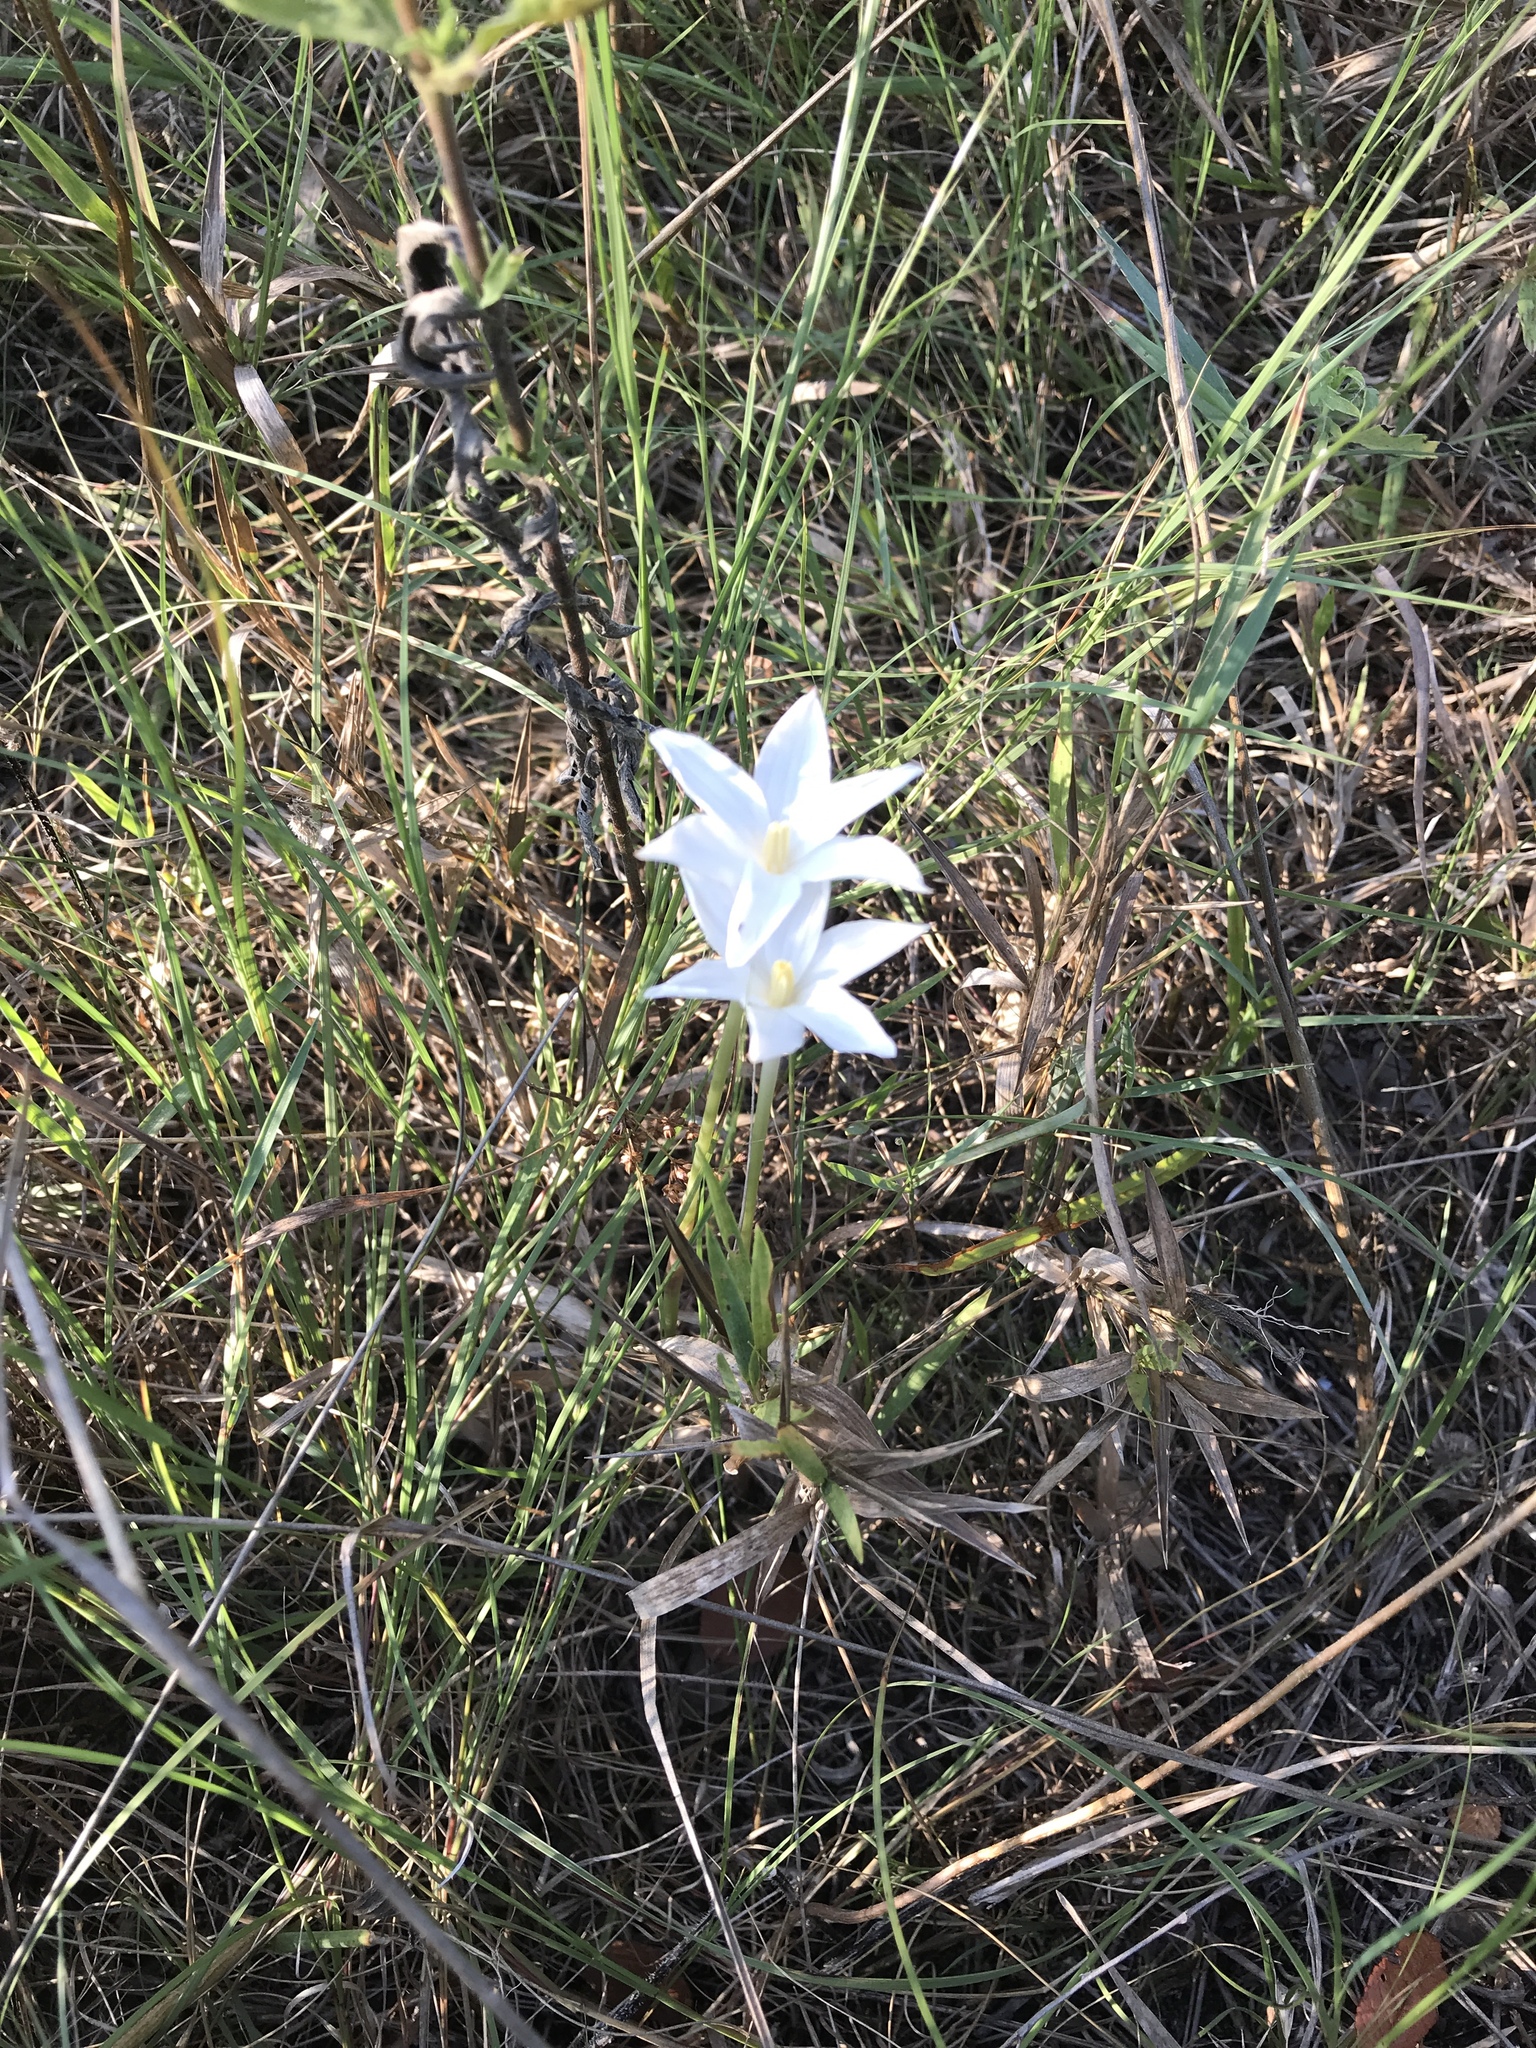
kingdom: Plantae
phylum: Tracheophyta
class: Liliopsida
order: Asparagales
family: Amaryllidaceae
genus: Zephyranthes
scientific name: Zephyranthes chlorosolen
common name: Evening rain-lily
